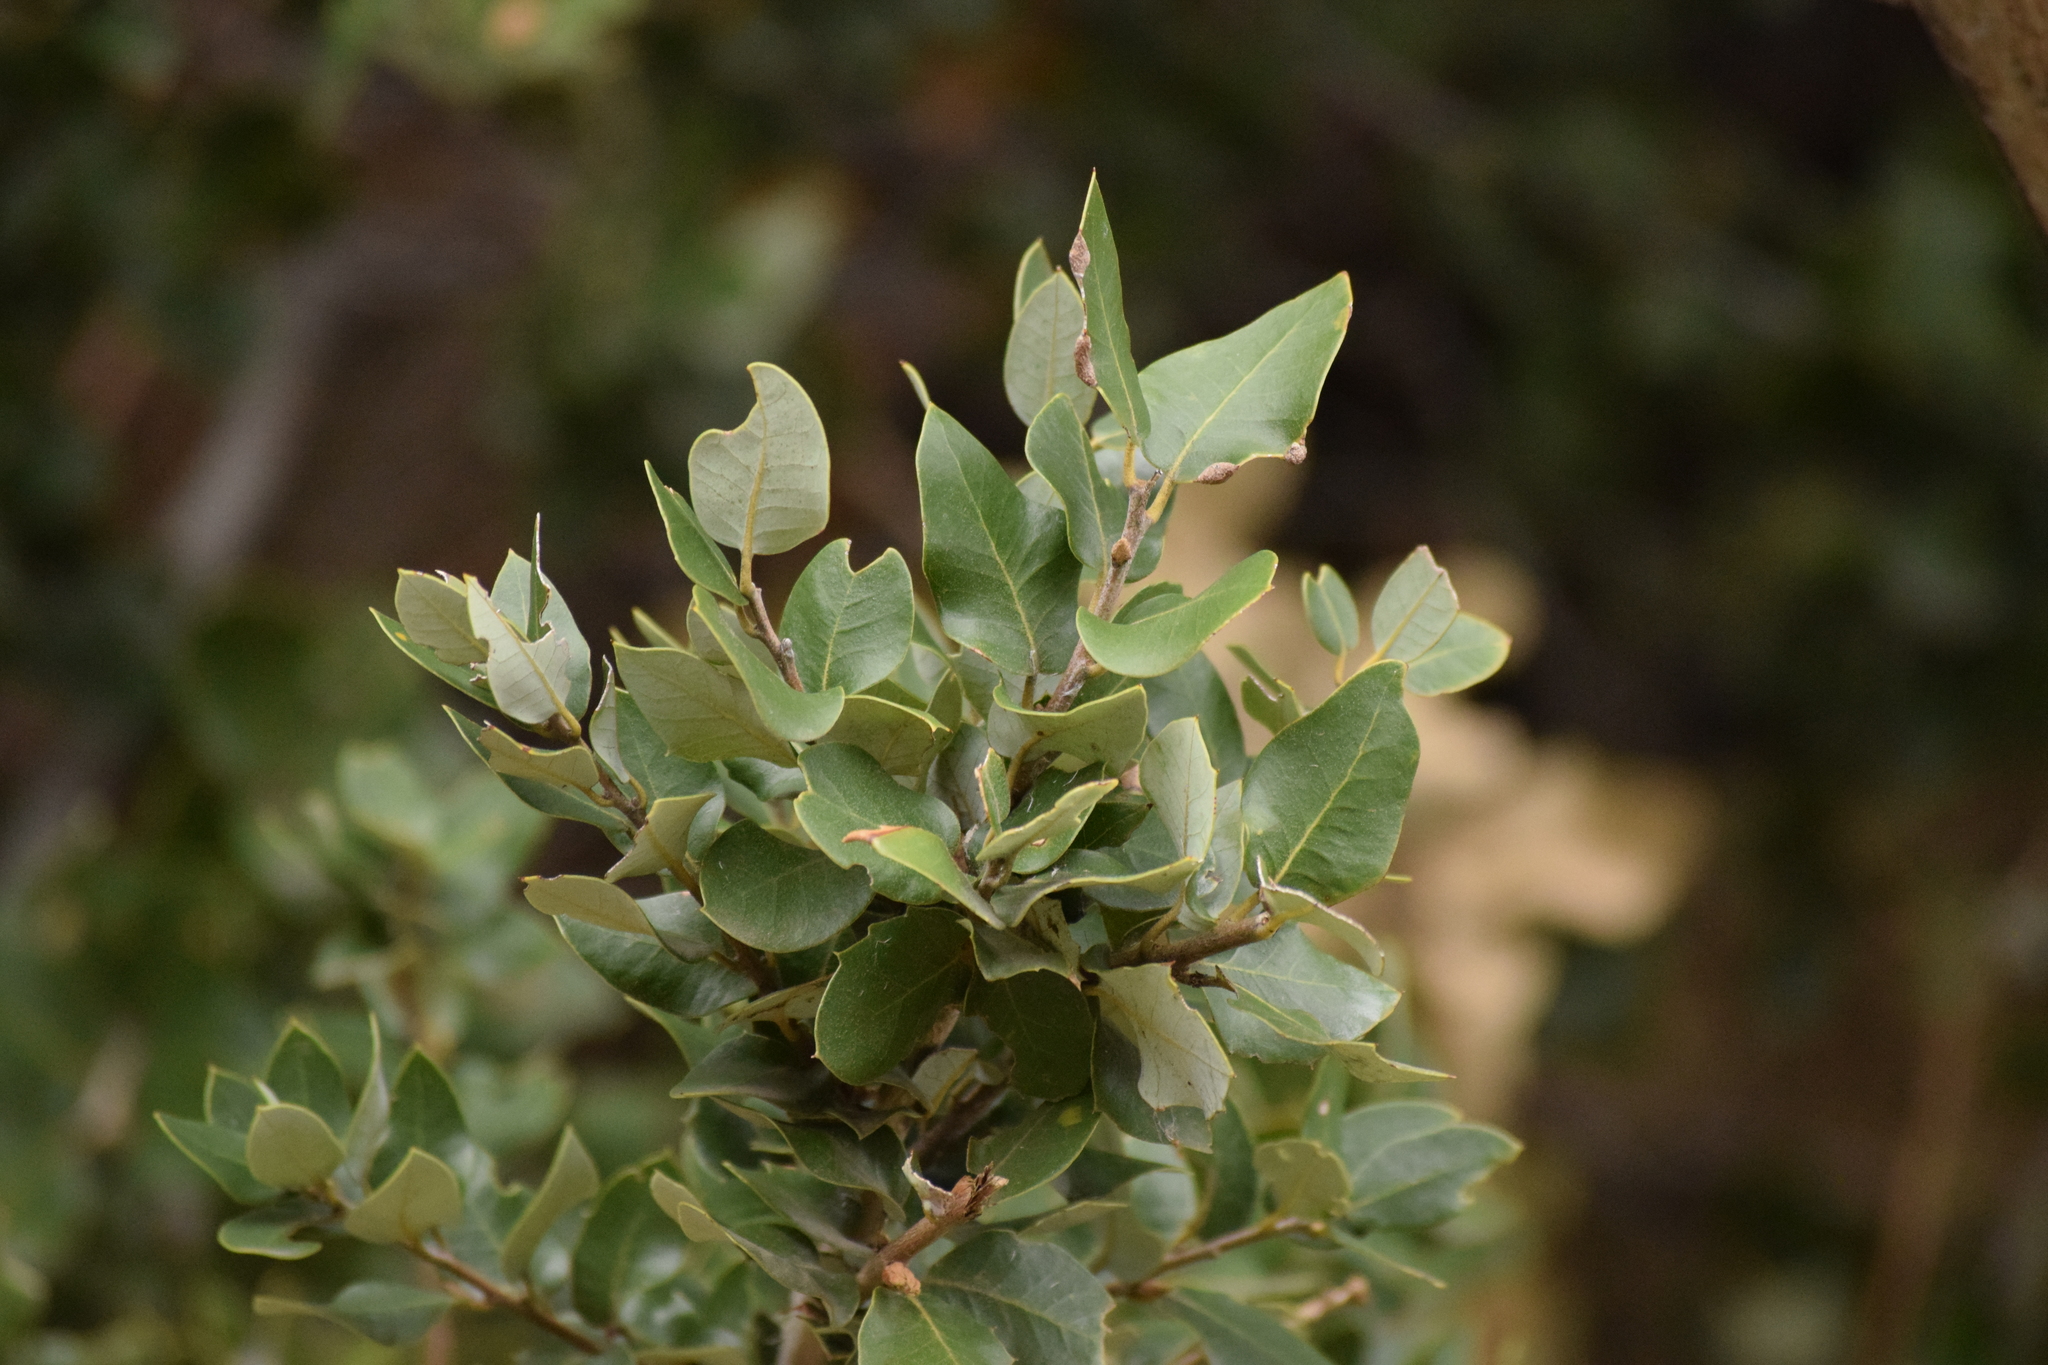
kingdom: Plantae
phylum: Tracheophyta
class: Magnoliopsida
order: Fagales
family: Fagaceae
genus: Quercus
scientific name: Quercus chrysolepis
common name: Canyon live oak
